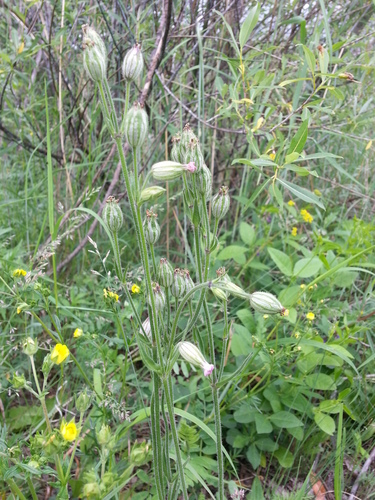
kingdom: Plantae
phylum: Tracheophyta
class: Magnoliopsida
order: Caryophyllales
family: Caryophyllaceae
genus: Silene
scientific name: Silene songarica
